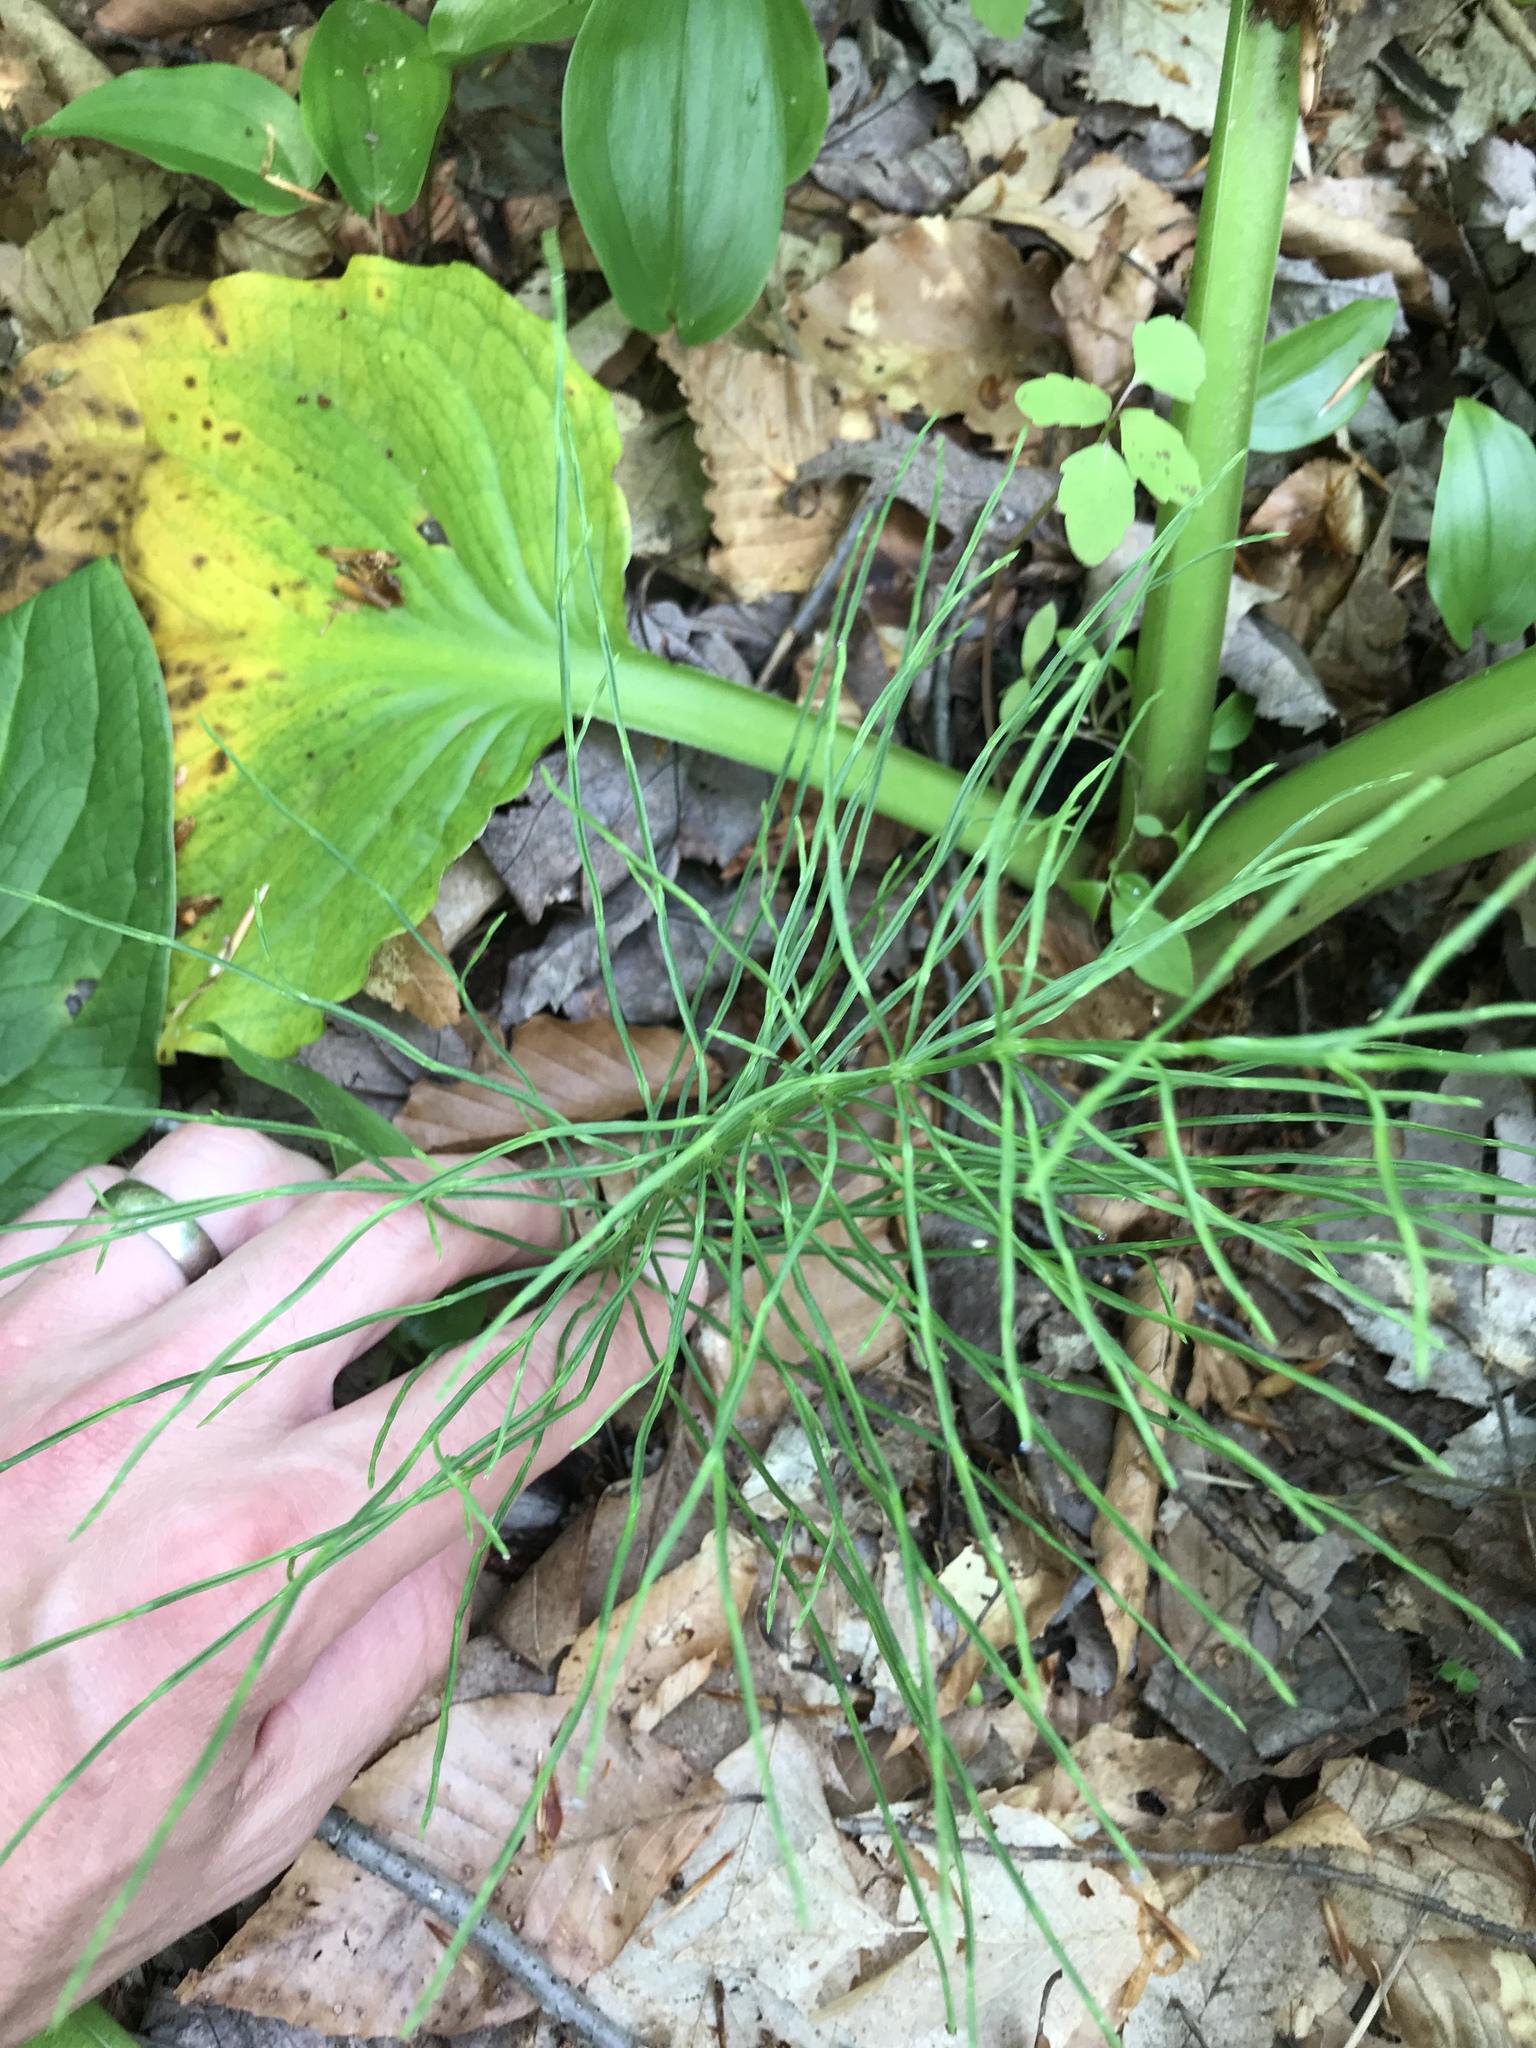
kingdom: Plantae
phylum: Tracheophyta
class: Polypodiopsida
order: Equisetales
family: Equisetaceae
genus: Equisetum
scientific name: Equisetum arvense
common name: Field horsetail
